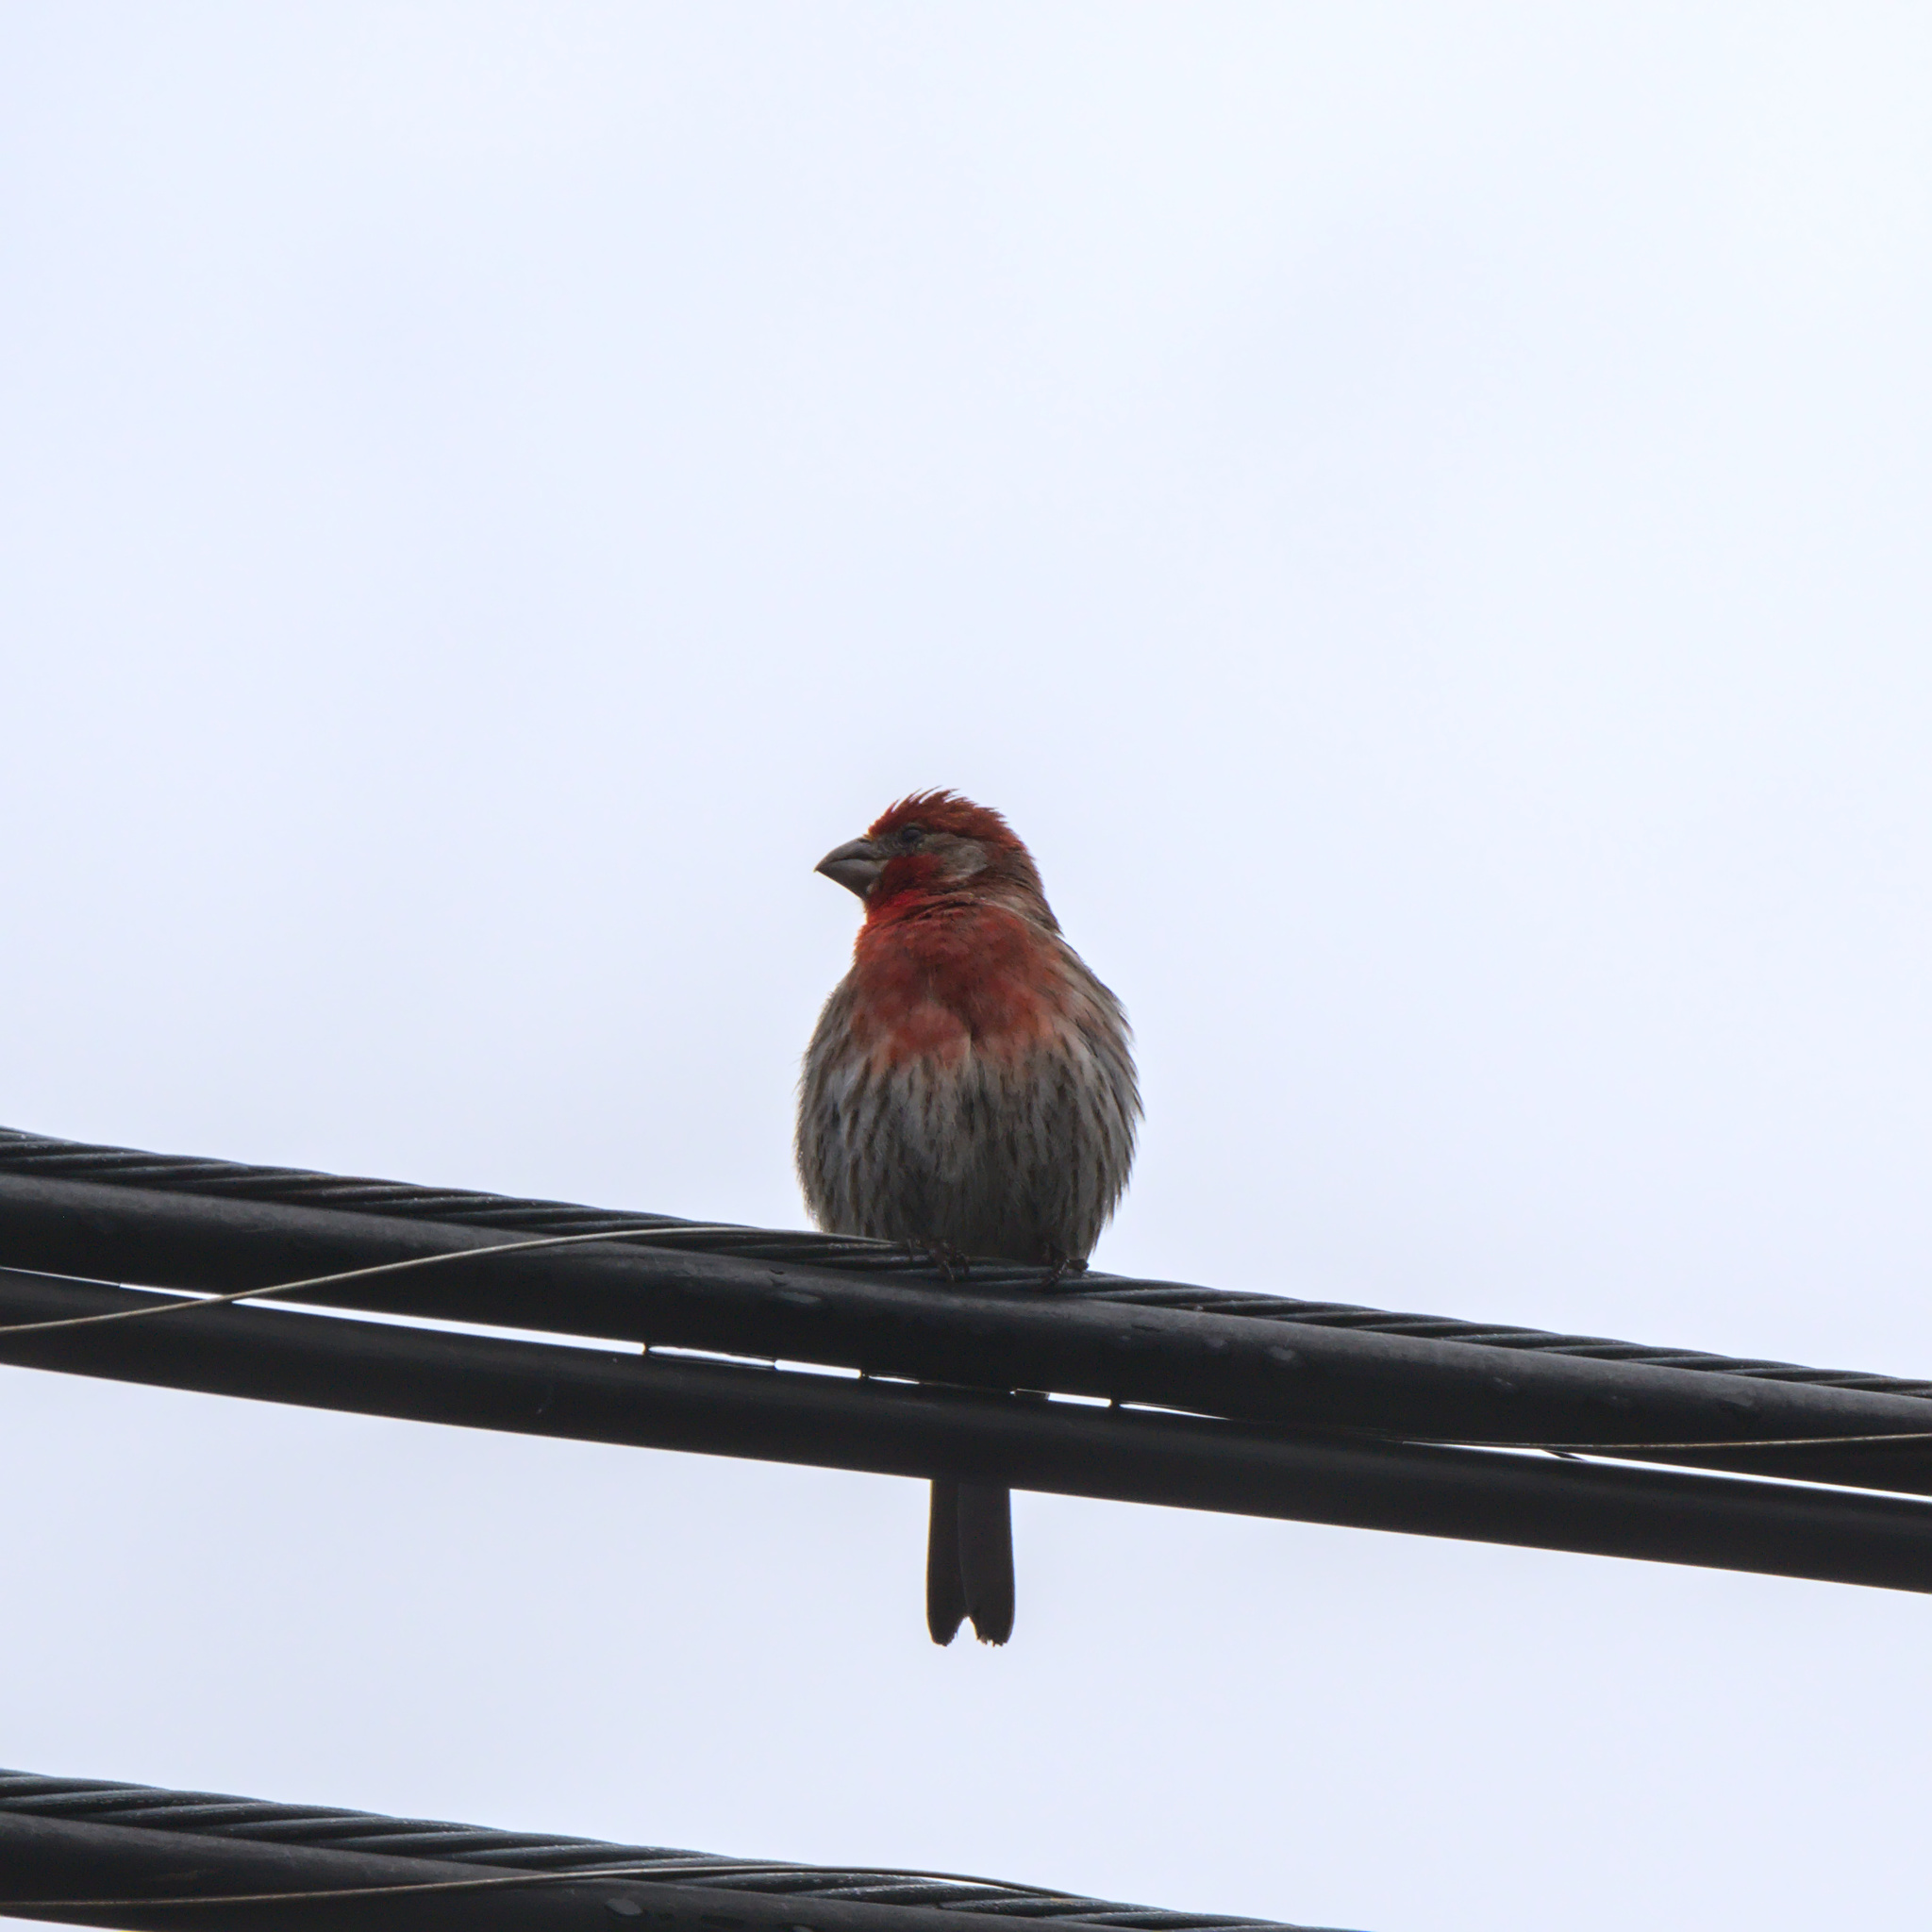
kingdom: Animalia
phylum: Chordata
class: Aves
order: Passeriformes
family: Fringillidae
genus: Haemorhous
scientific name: Haemorhous mexicanus
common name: House finch
